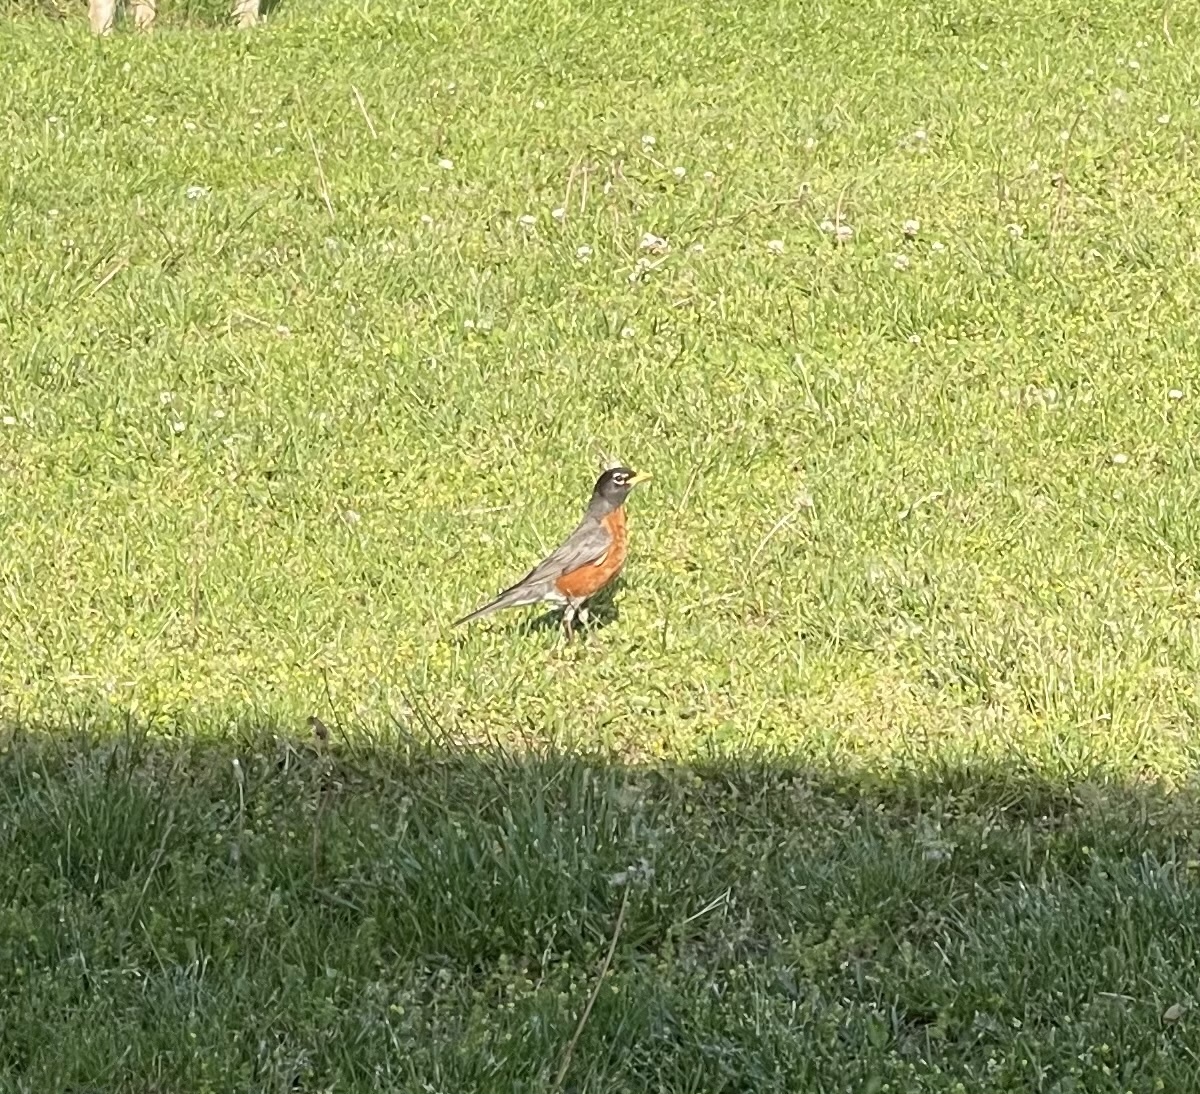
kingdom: Animalia
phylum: Chordata
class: Aves
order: Passeriformes
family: Turdidae
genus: Turdus
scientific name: Turdus migratorius
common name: American robin
